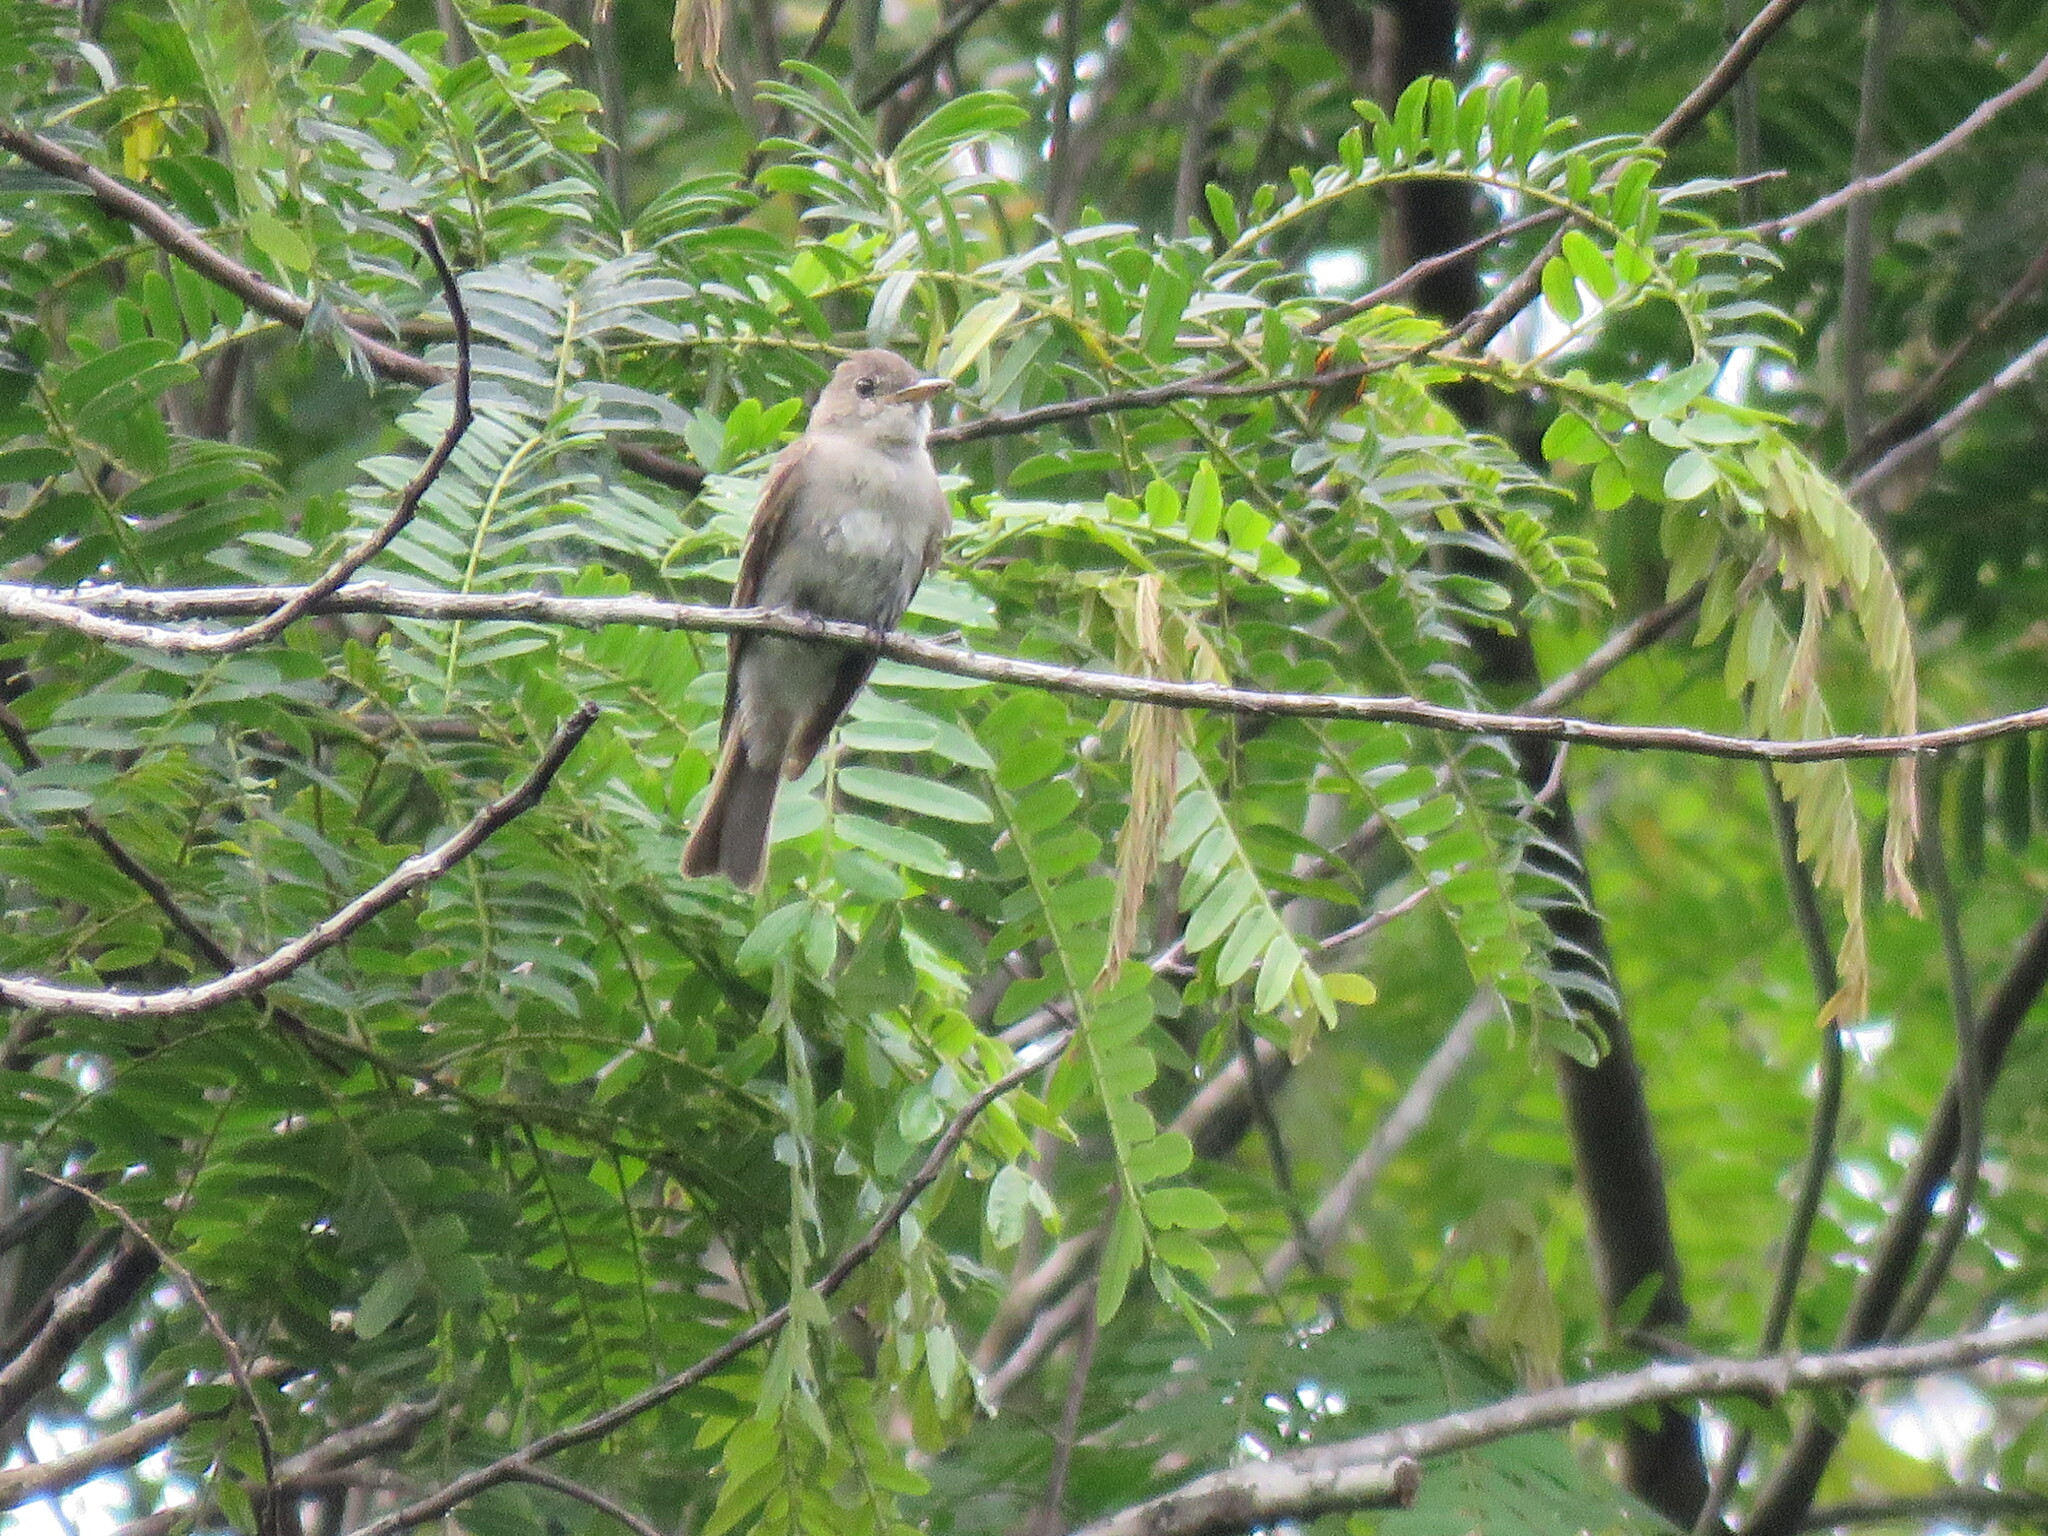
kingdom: Animalia
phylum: Chordata
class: Aves
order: Passeriformes
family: Tyrannidae
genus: Contopus
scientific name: Contopus virens
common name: Eastern wood-pewee
